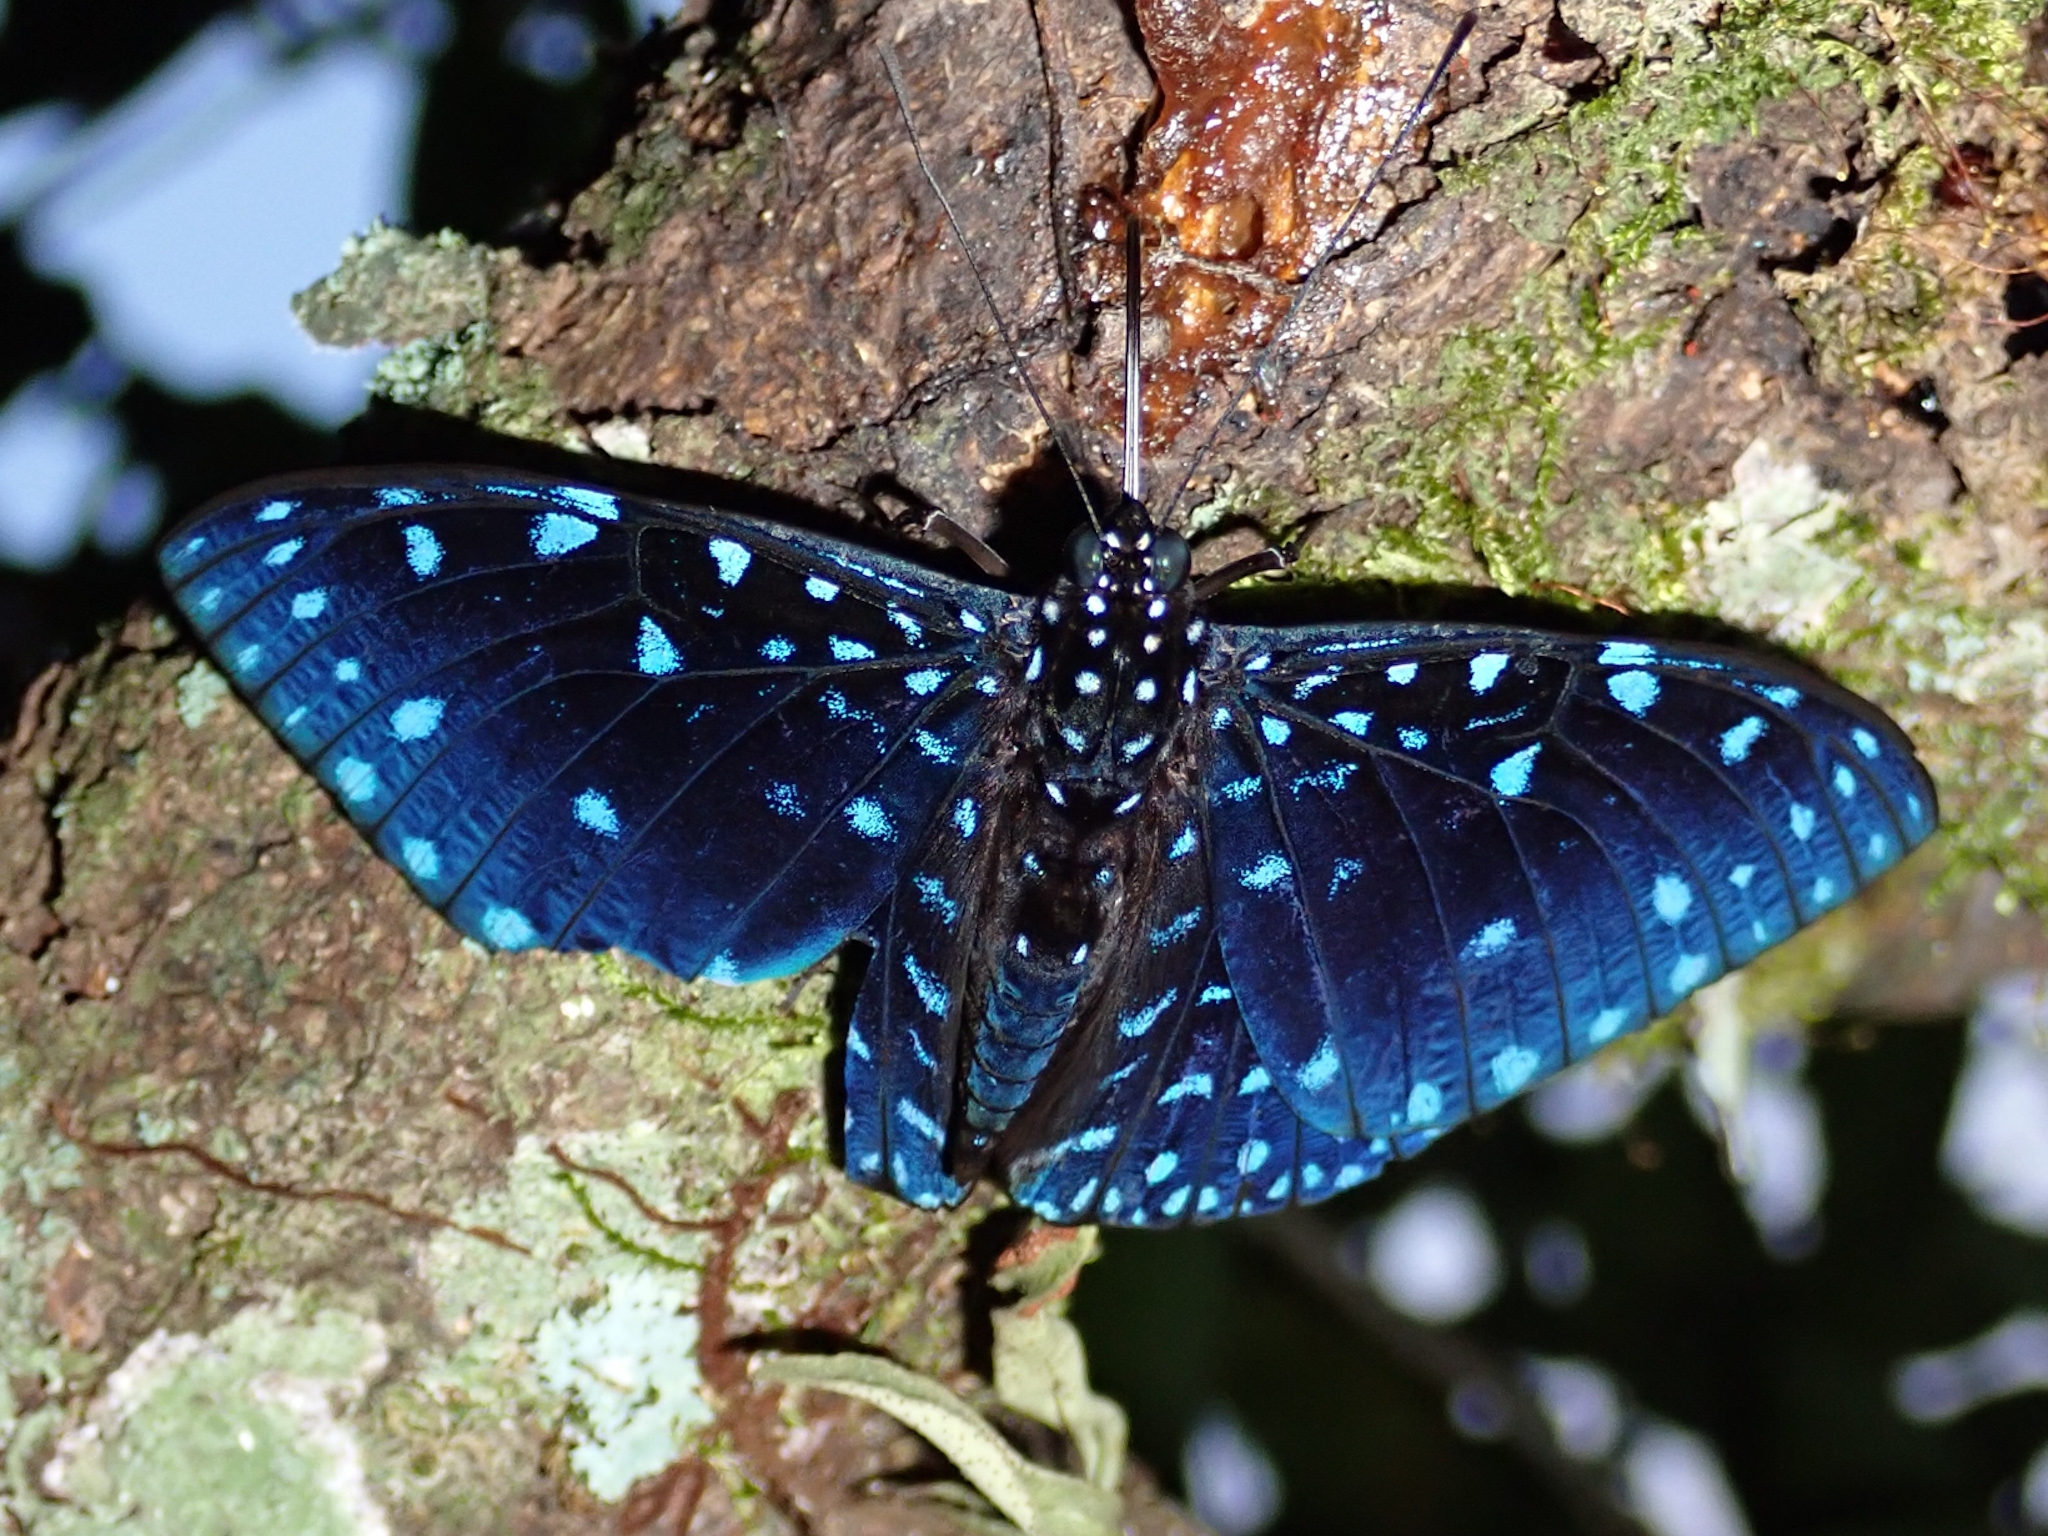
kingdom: Animalia
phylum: Arthropoda
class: Insecta
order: Lepidoptera
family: Nymphalidae
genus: Hamadryas
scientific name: Hamadryas laodamia
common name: Starry night cracker
